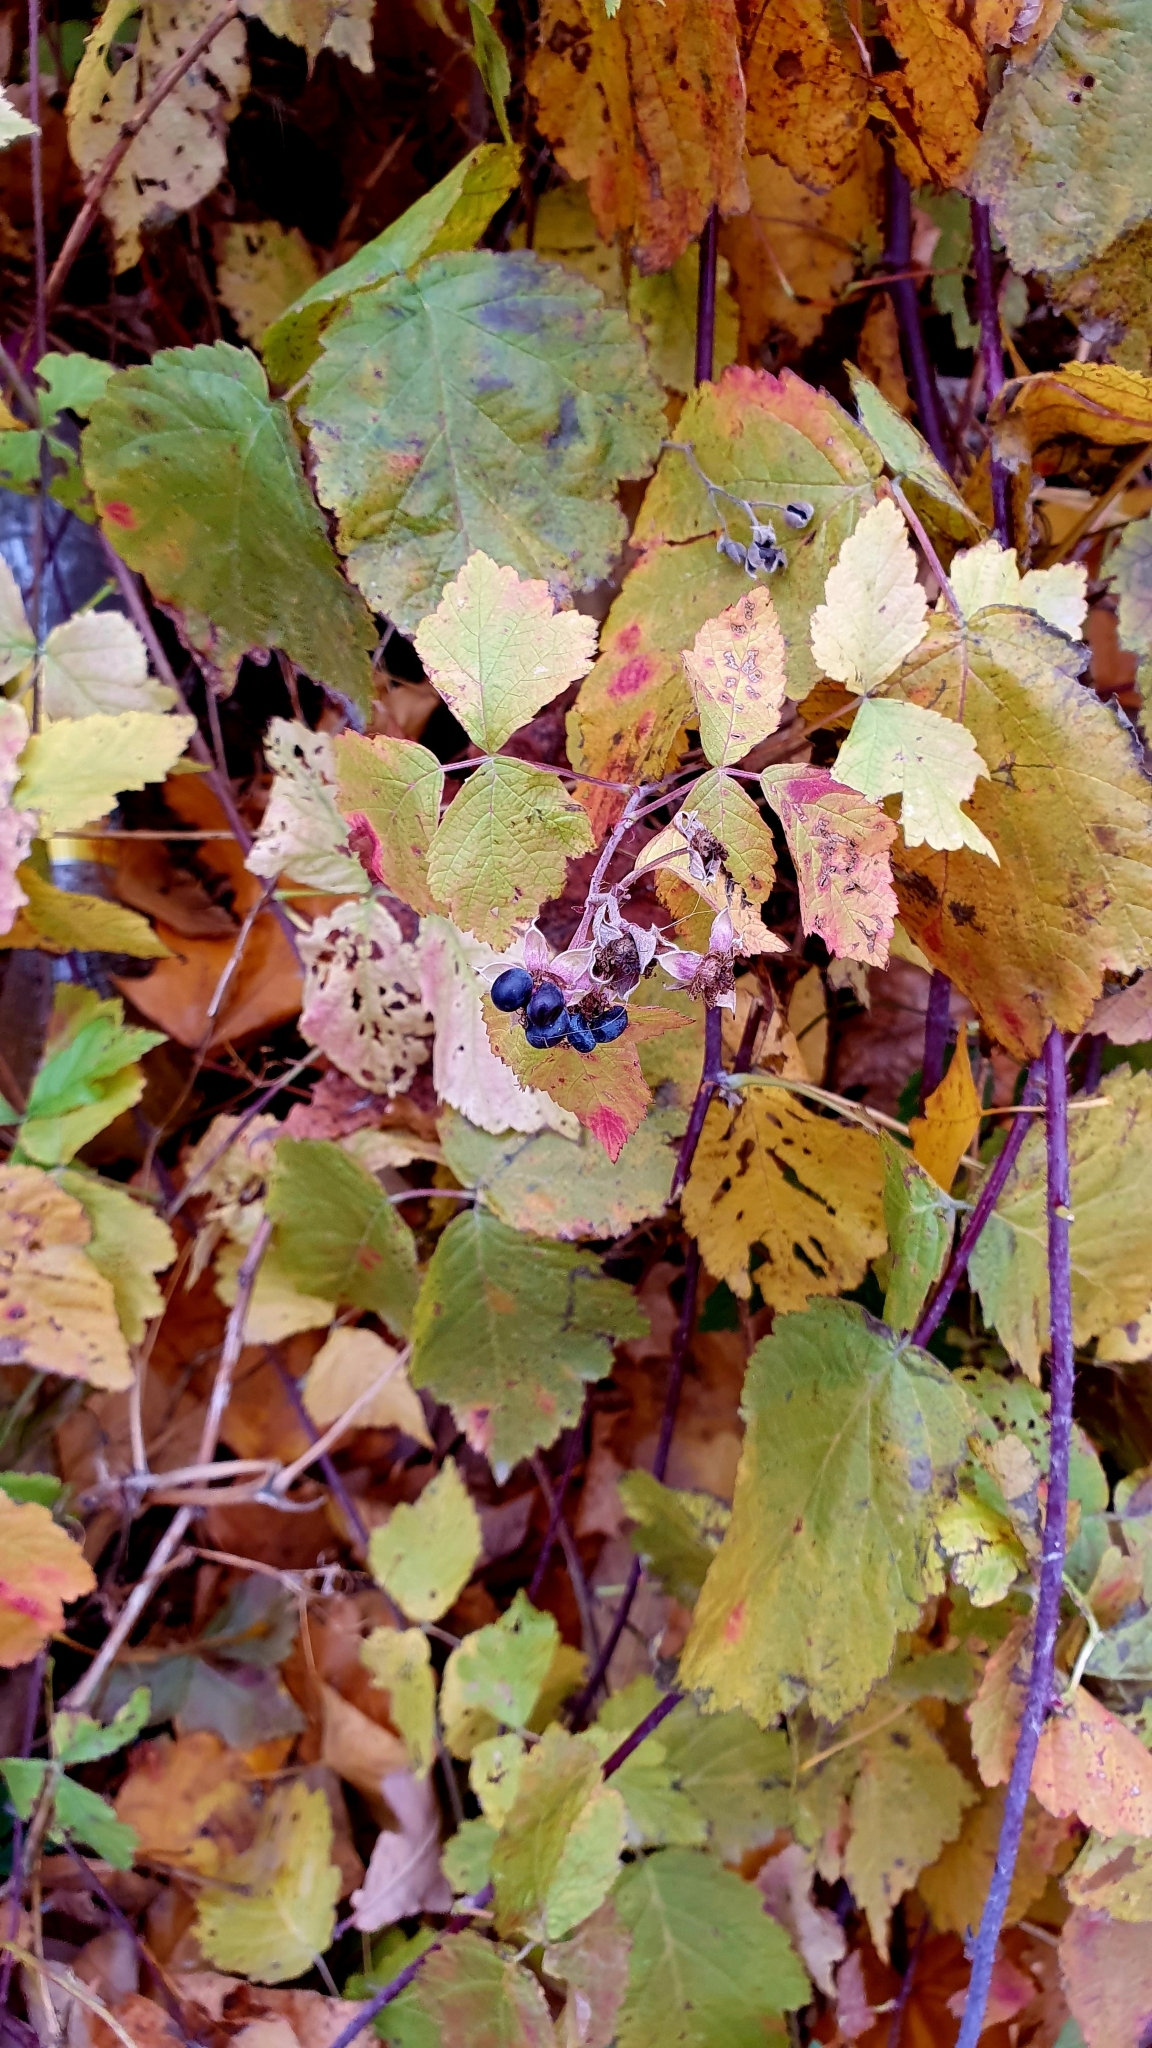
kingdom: Plantae
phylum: Tracheophyta
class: Magnoliopsida
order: Rosales
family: Rosaceae
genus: Rubus
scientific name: Rubus caesius
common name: Dewberry
